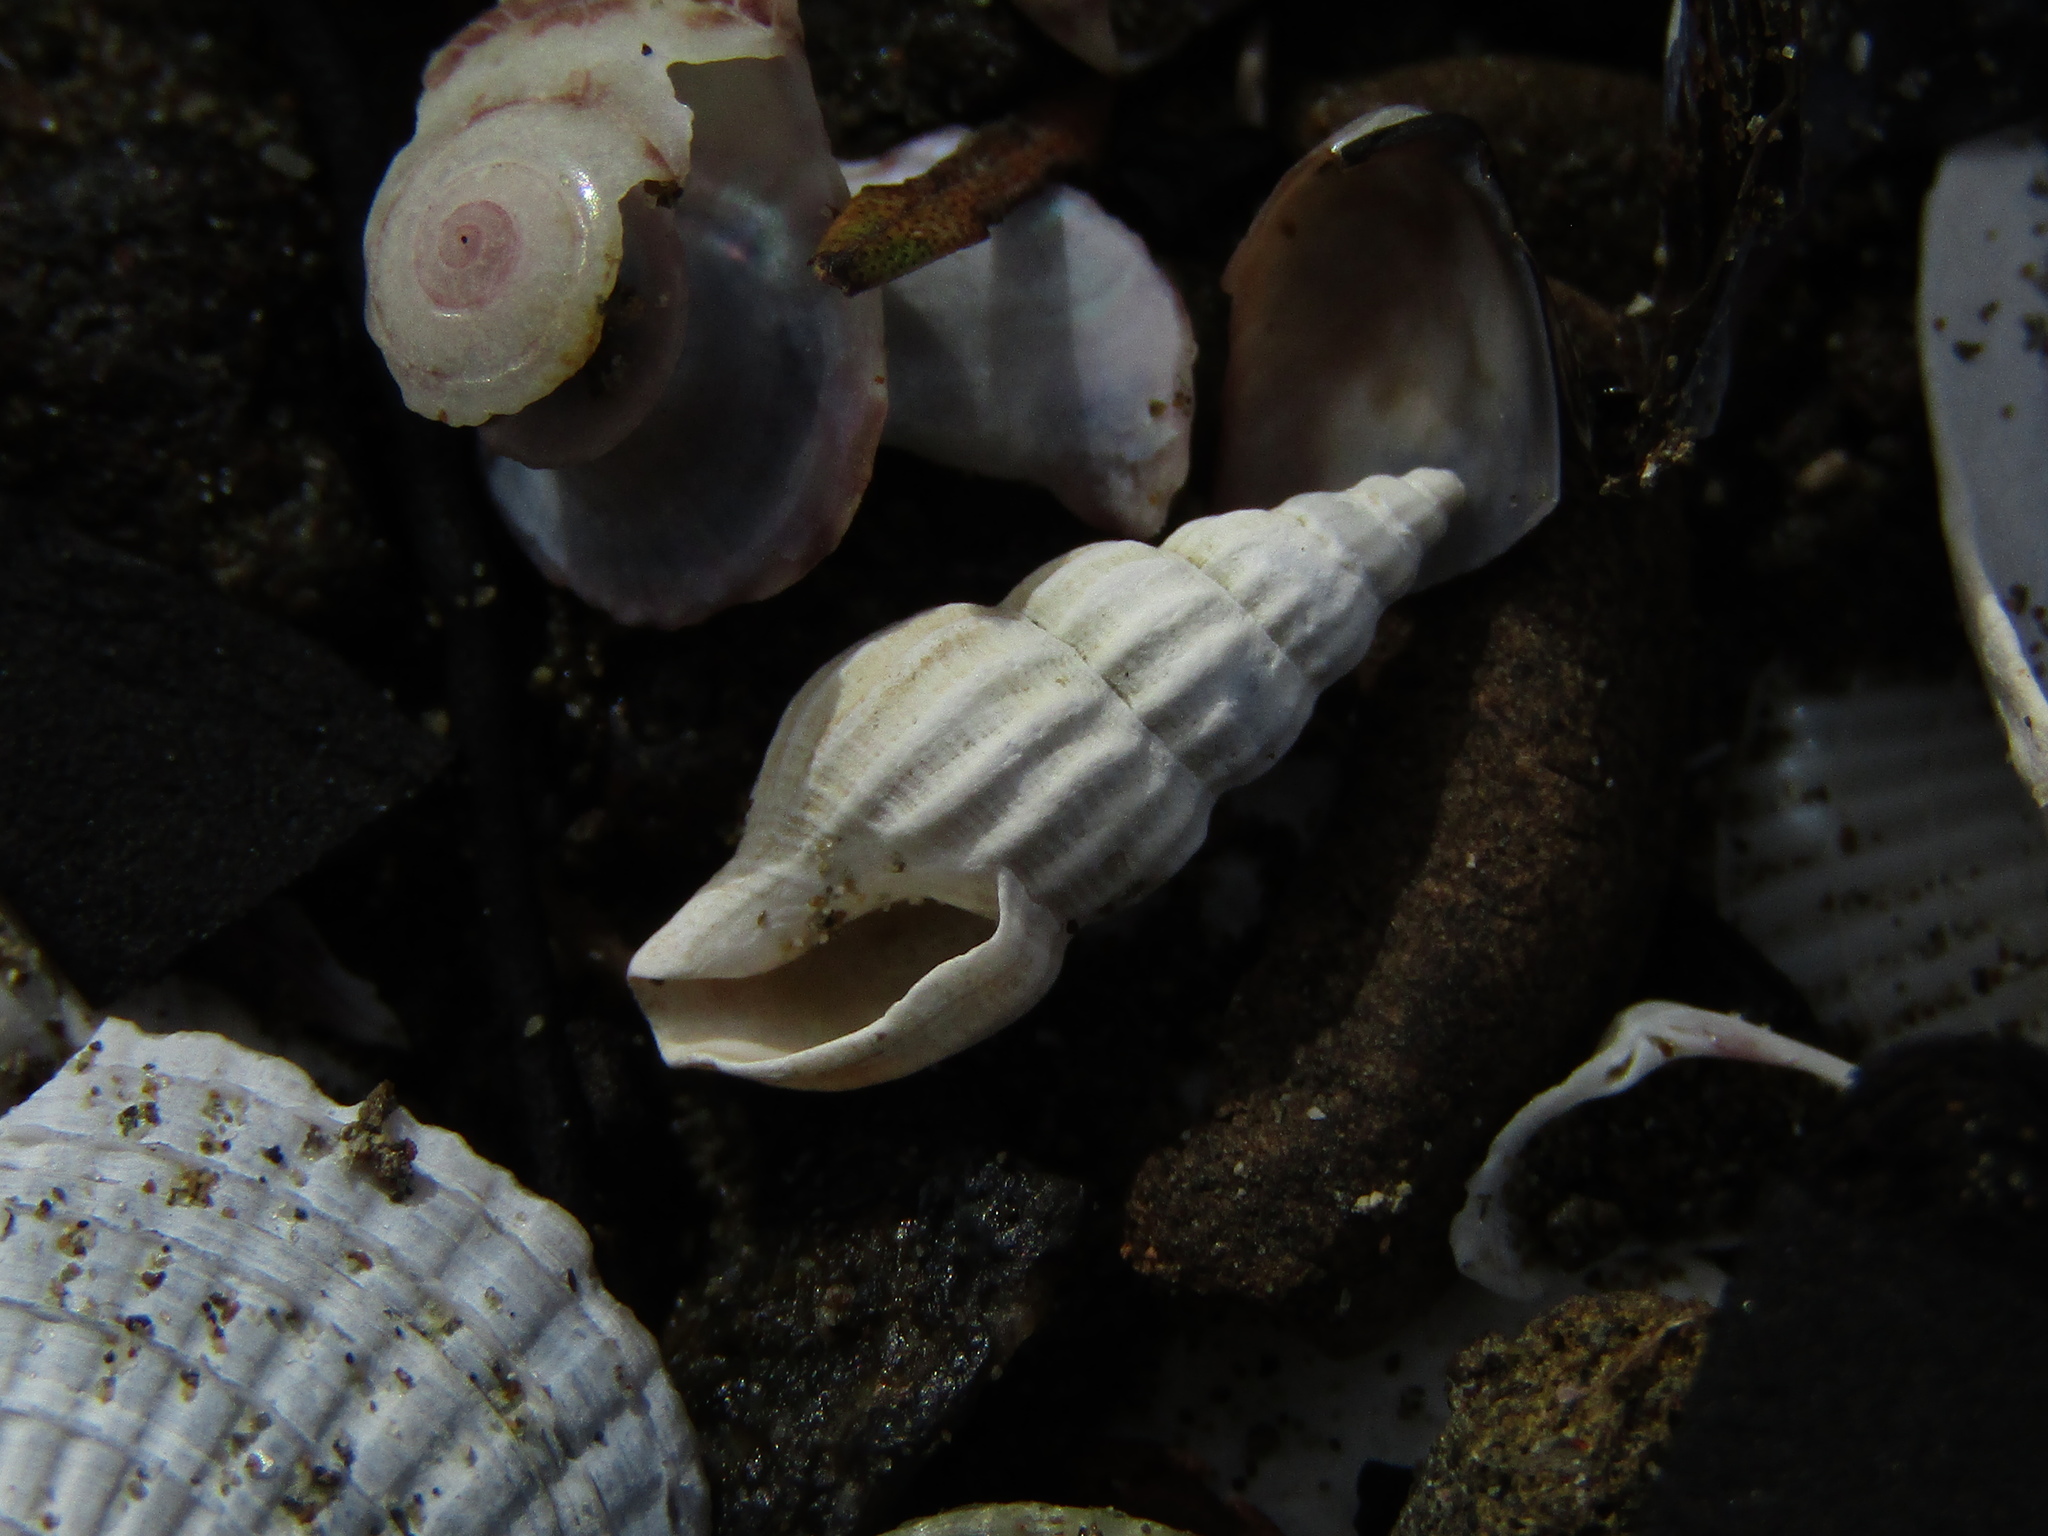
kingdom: Animalia
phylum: Mollusca
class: Gastropoda
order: Neogastropoda
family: Mangeliidae
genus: Neoguraleus
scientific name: Neoguraleus finlayi
